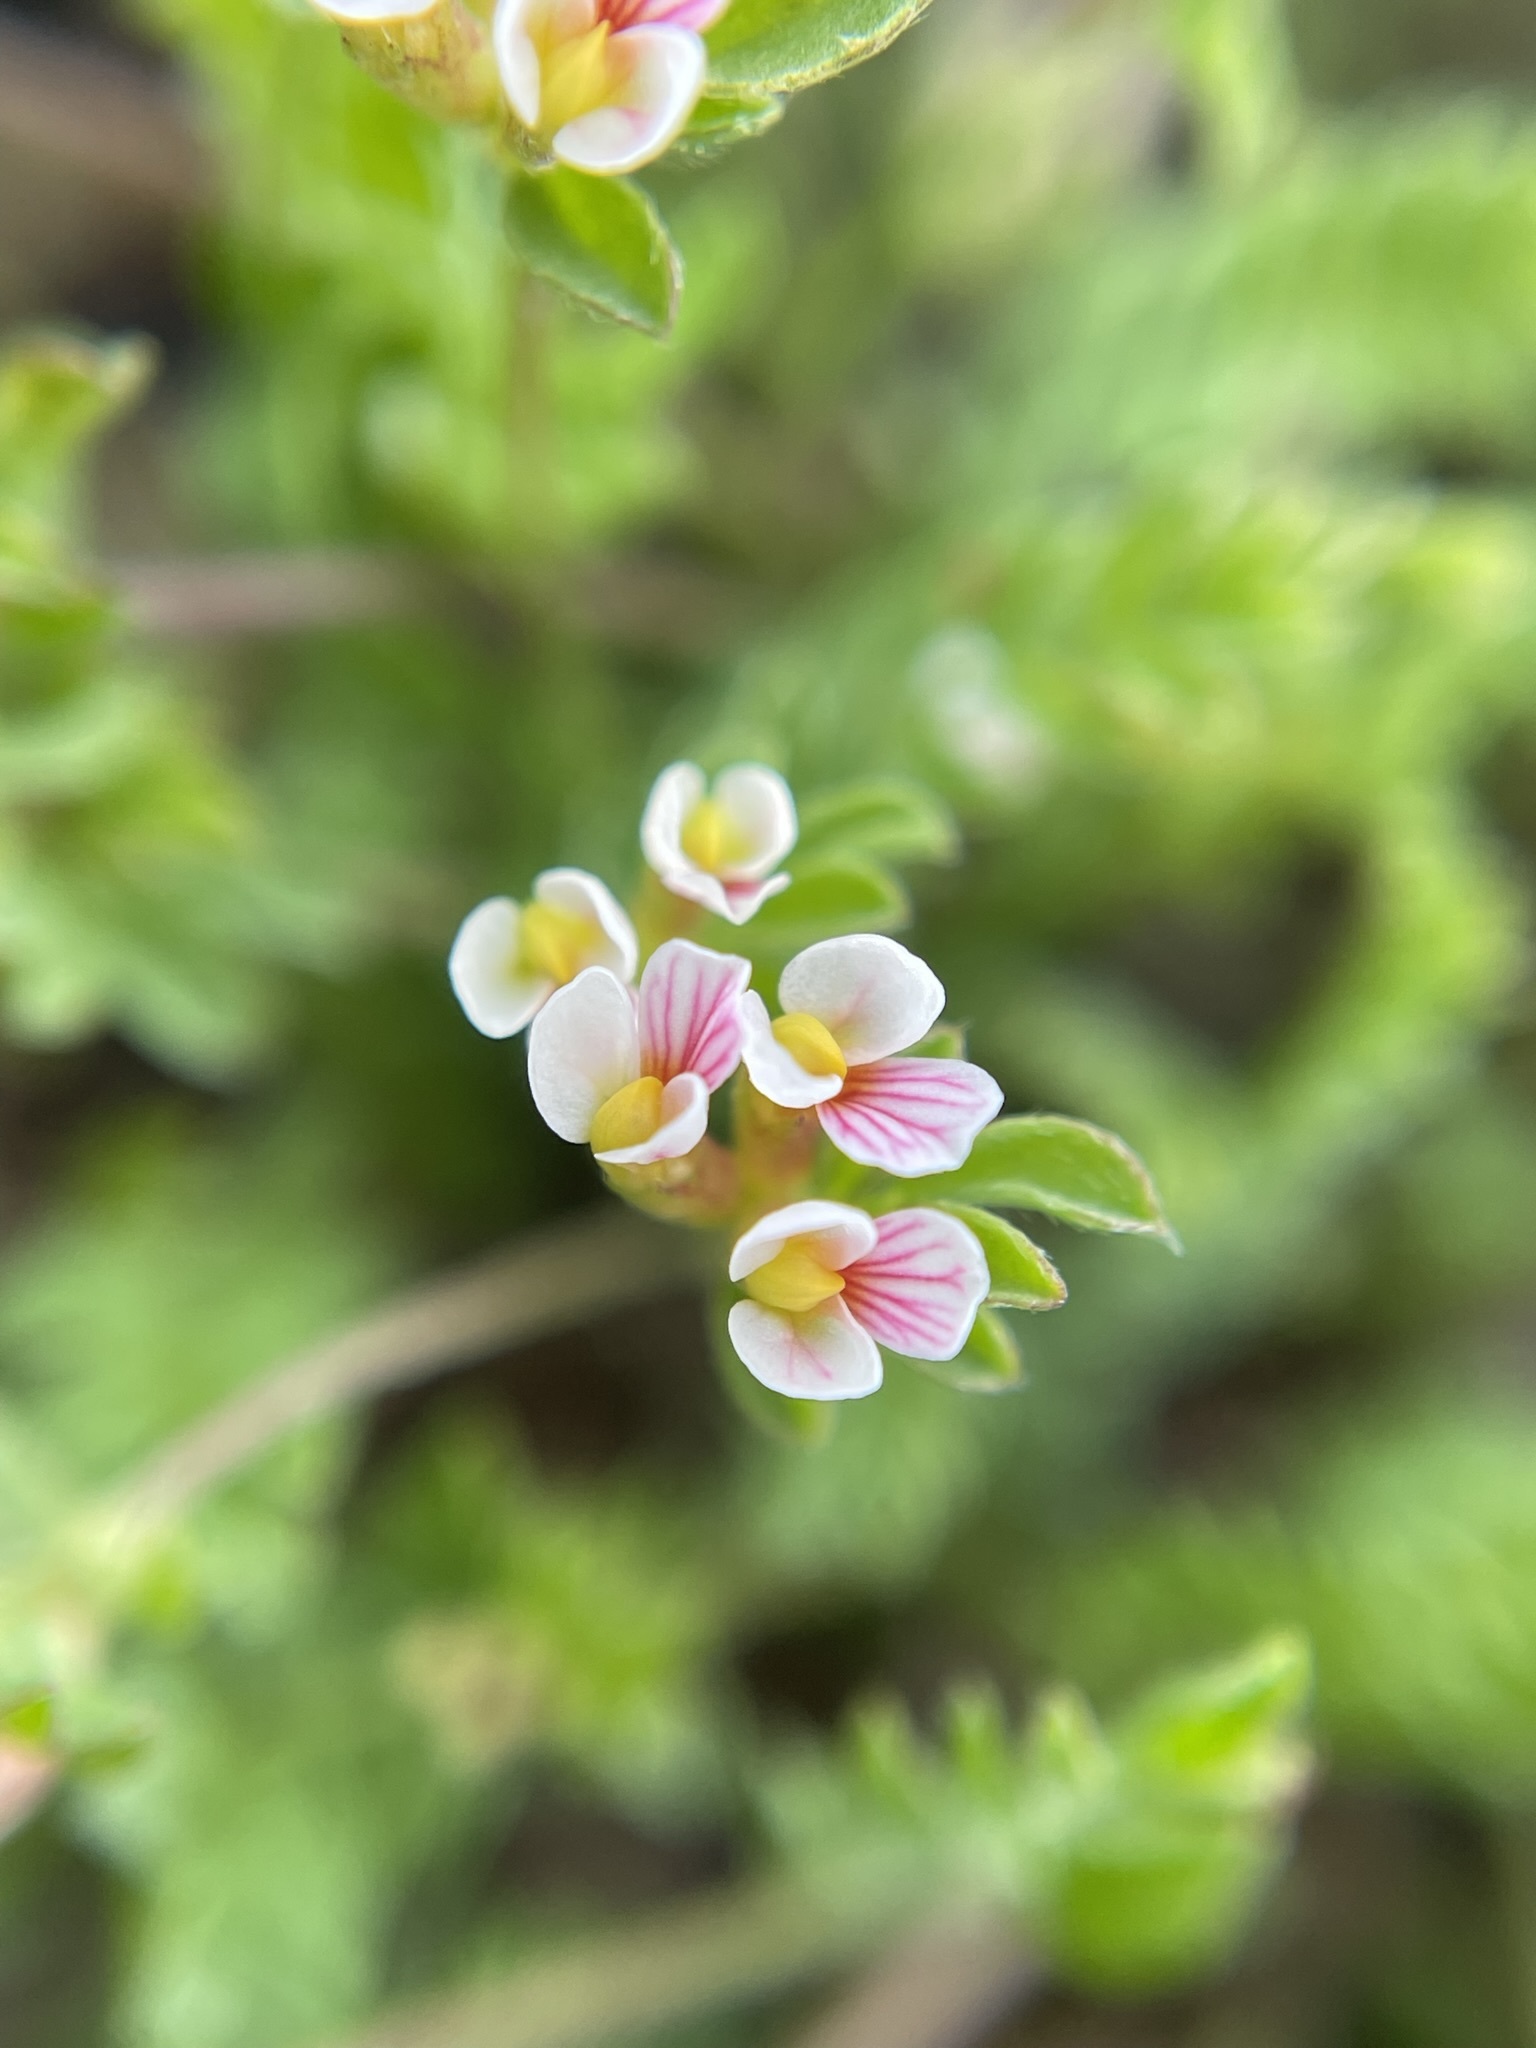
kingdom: Plantae
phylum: Tracheophyta
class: Magnoliopsida
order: Fabales
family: Fabaceae
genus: Ornithopus
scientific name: Ornithopus perpusillus
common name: Bird's-foot
